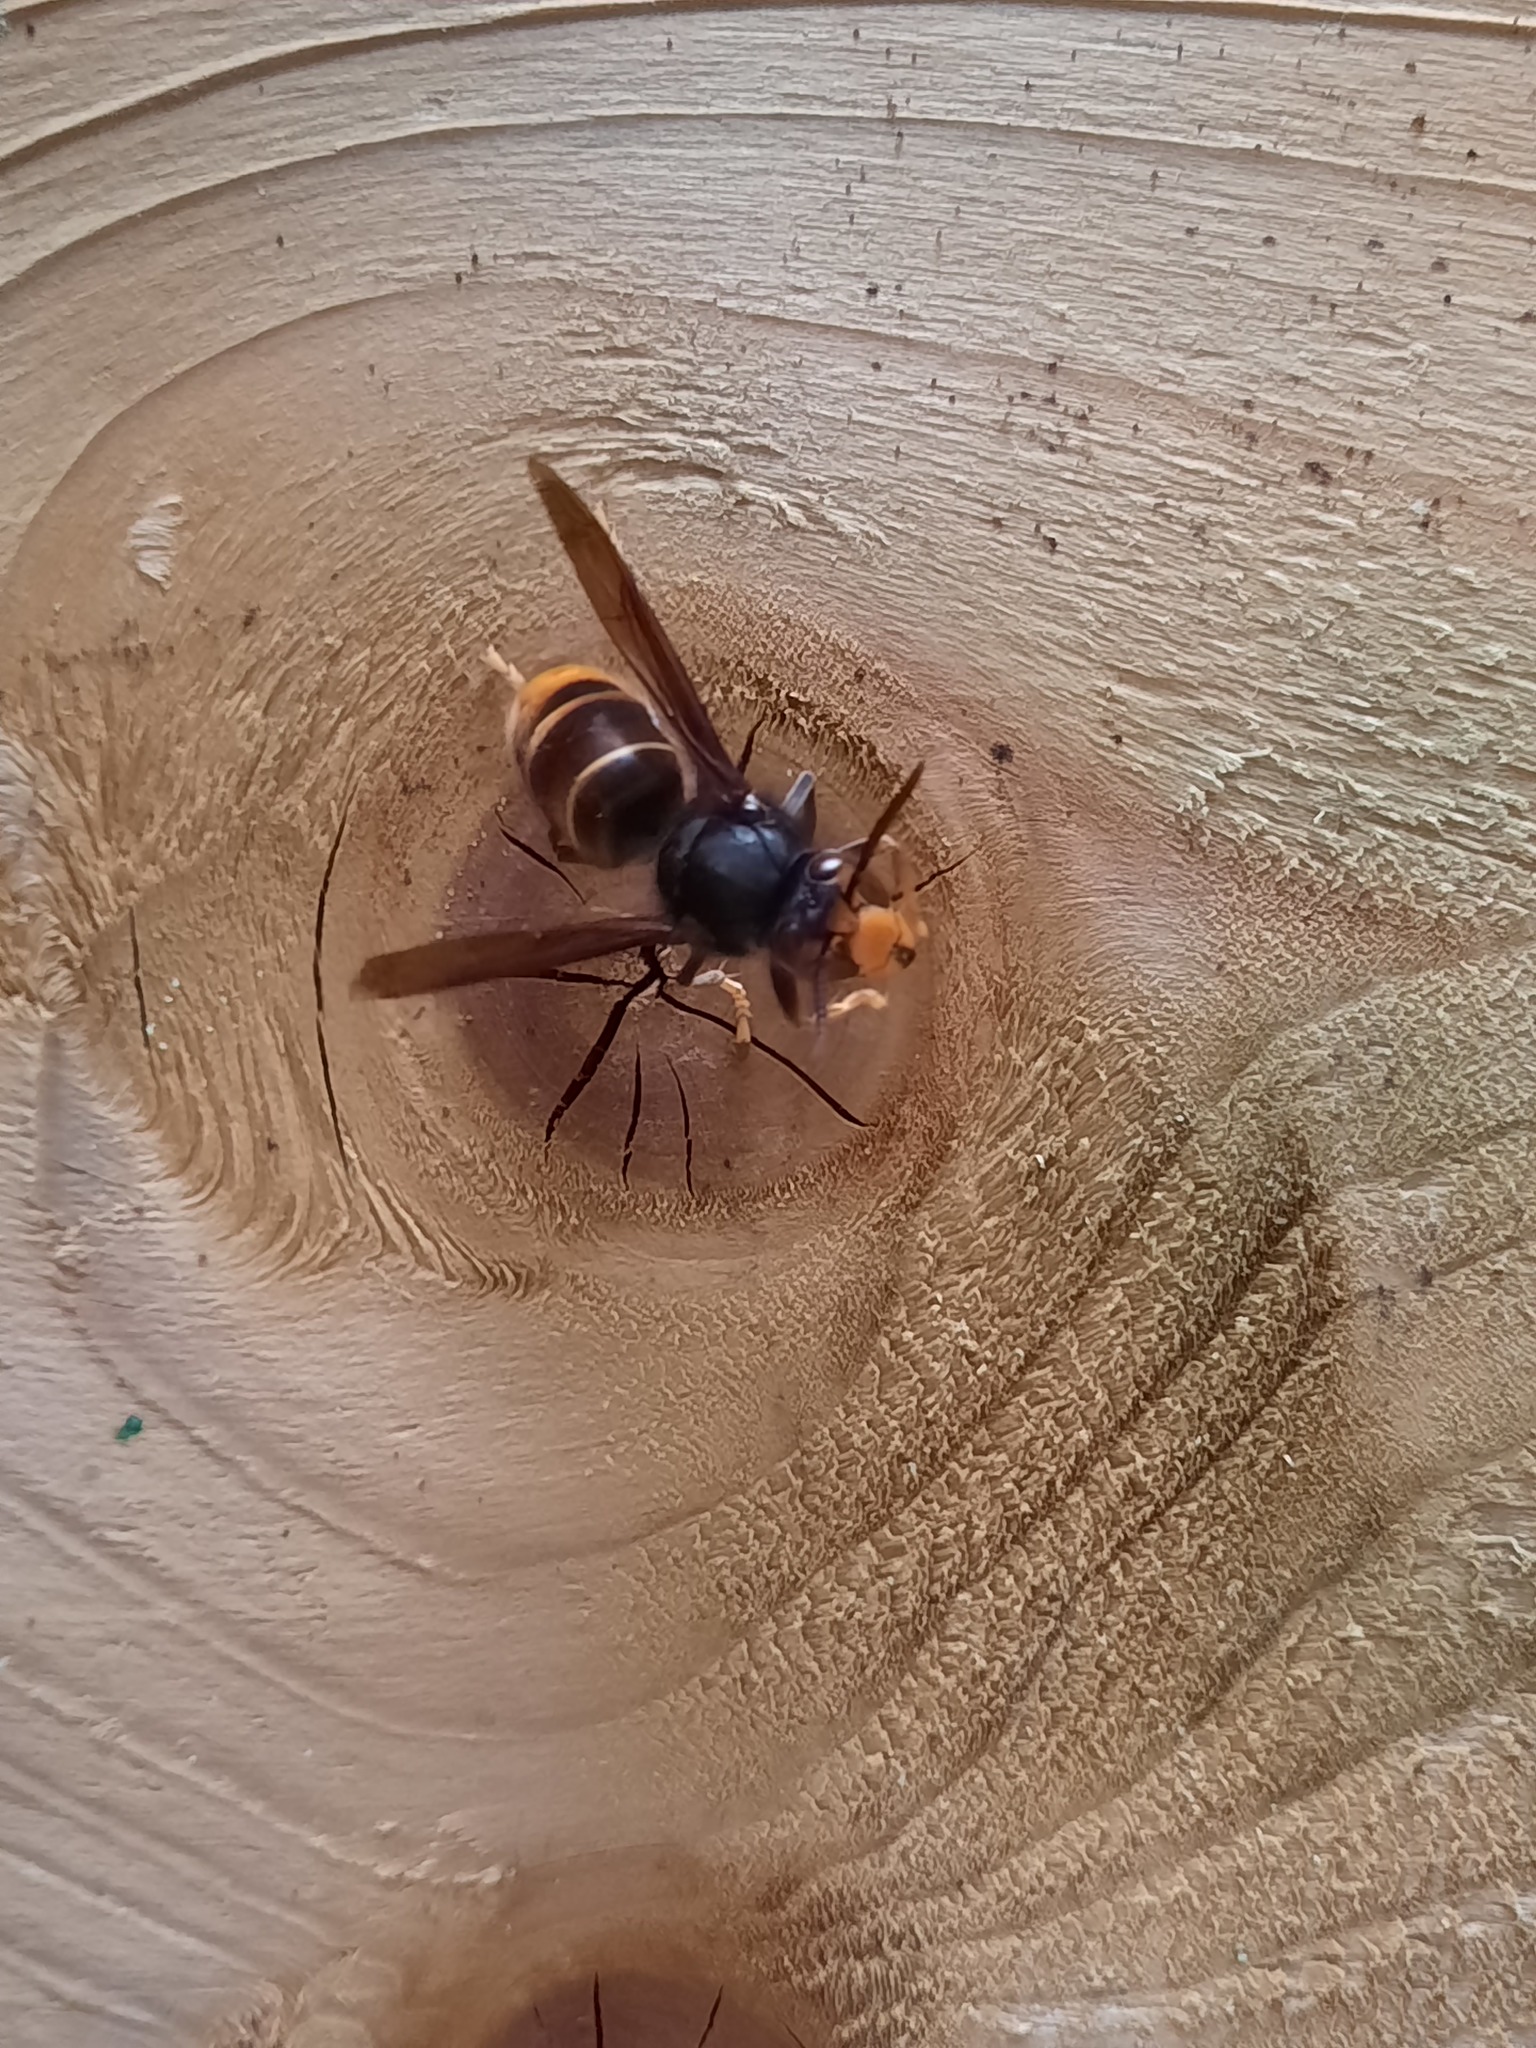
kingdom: Animalia
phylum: Arthropoda
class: Insecta
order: Hymenoptera
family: Vespidae
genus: Vespa
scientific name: Vespa velutina
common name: Asian hornet
